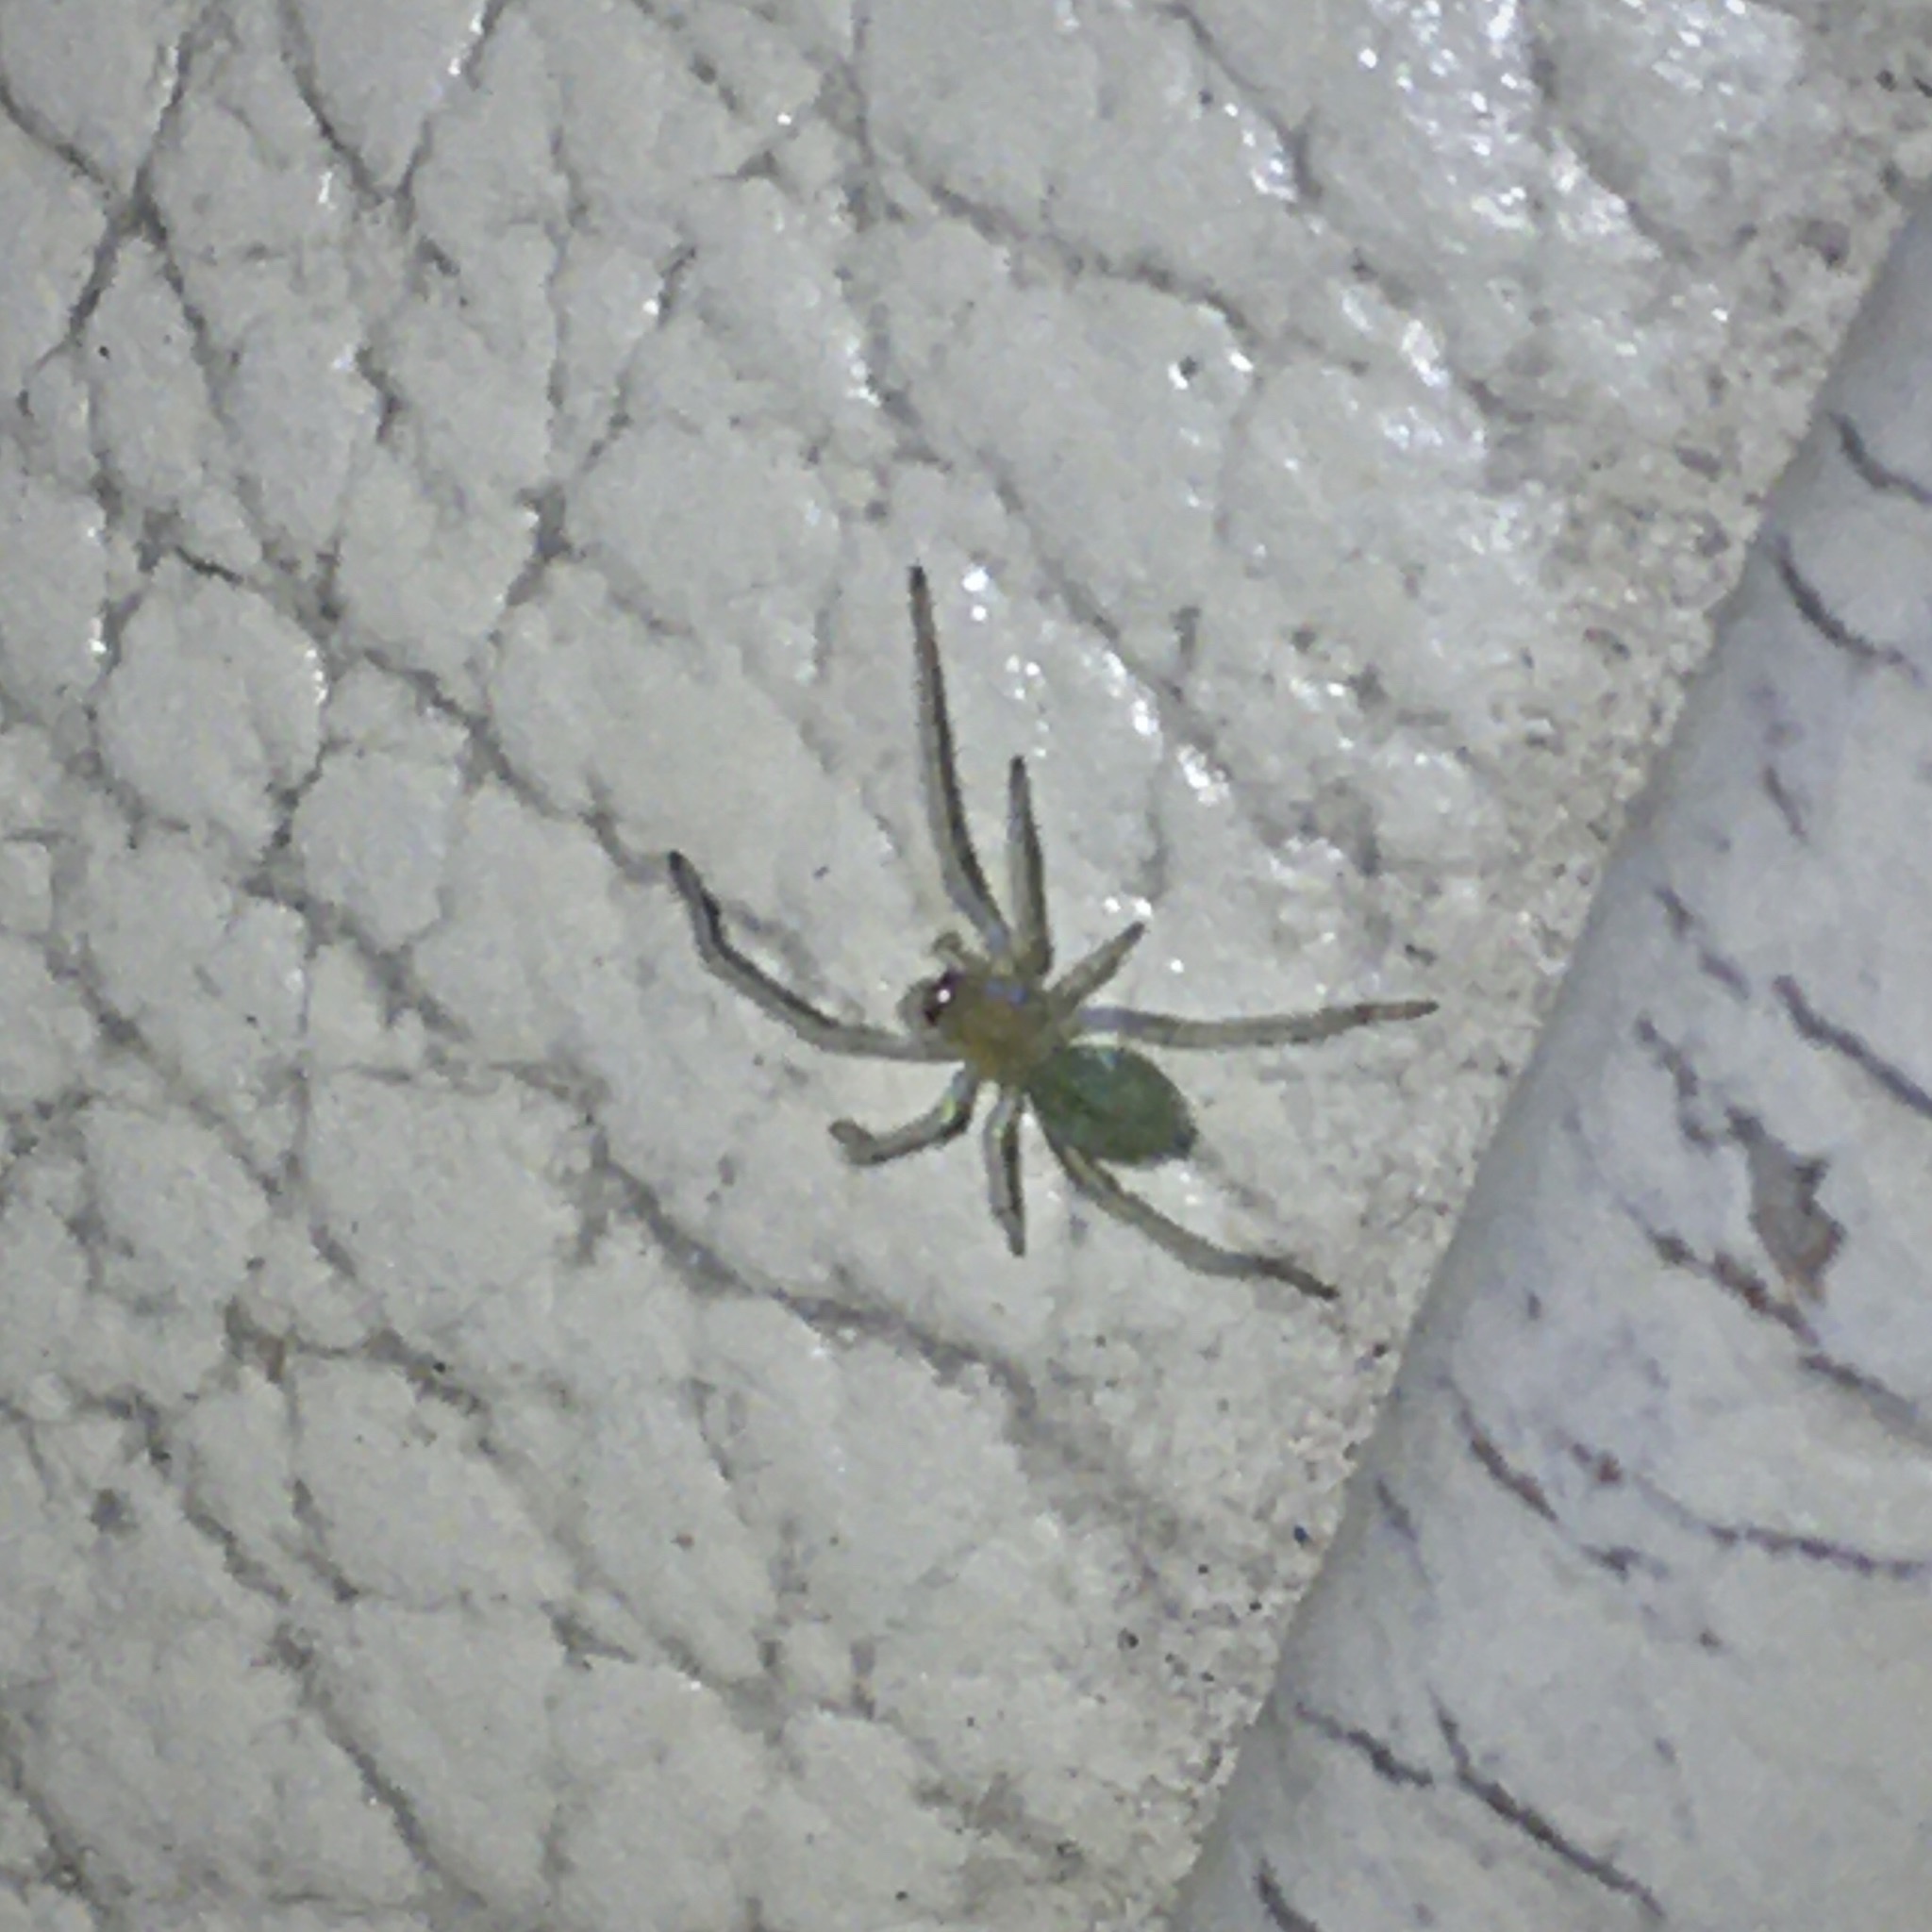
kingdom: Animalia
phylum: Arthropoda
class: Arachnida
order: Araneae
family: Cheiracanthiidae
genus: Cheiracanthium
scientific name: Cheiracanthium
